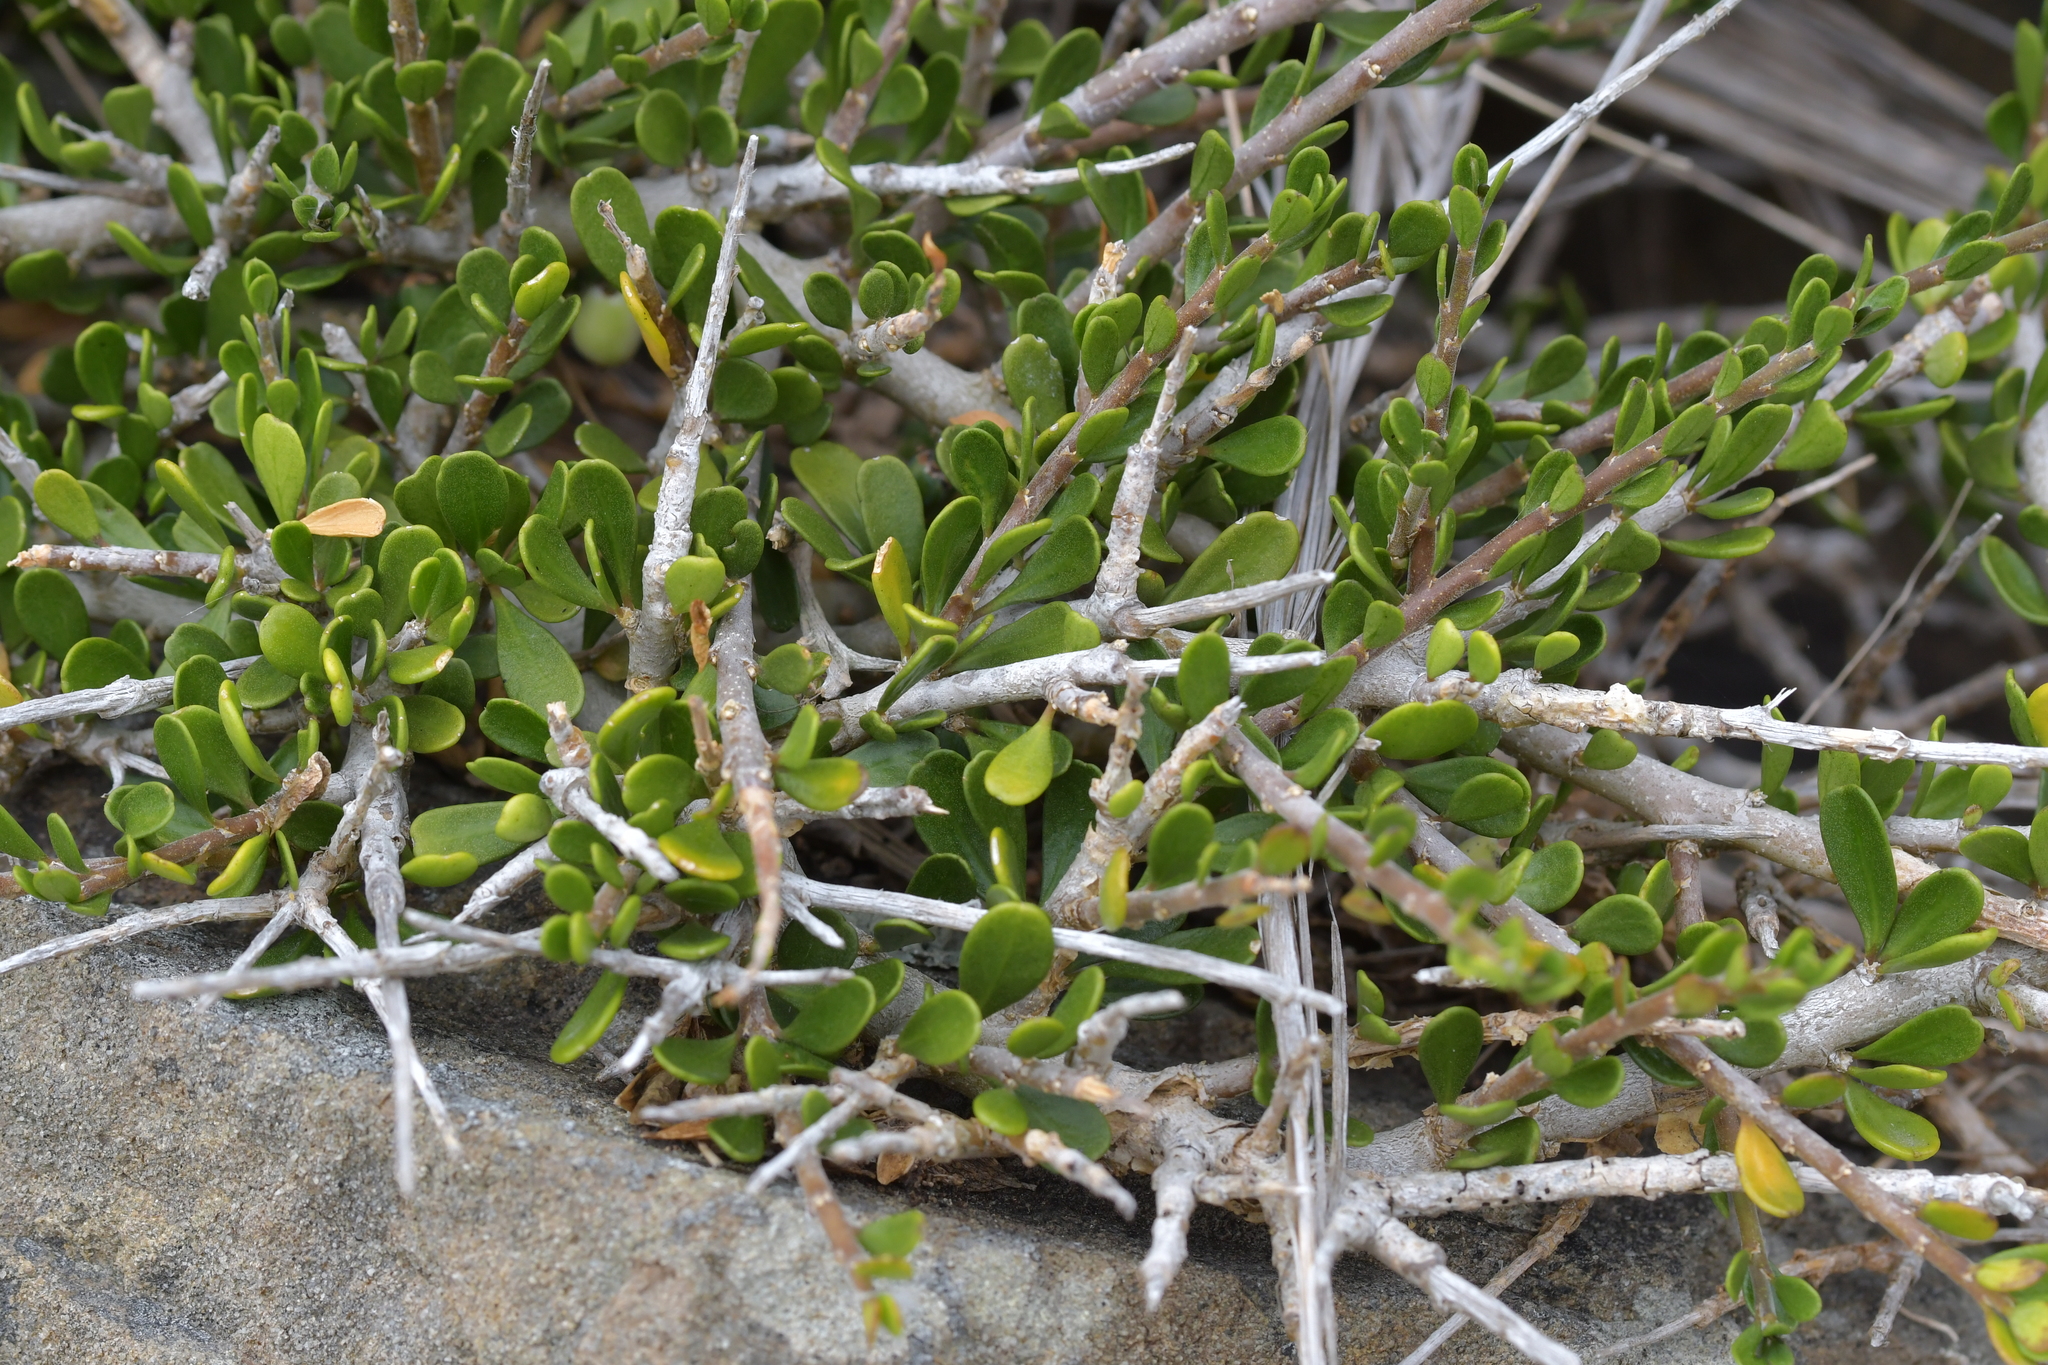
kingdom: Plantae
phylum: Tracheophyta
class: Magnoliopsida
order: Malpighiales
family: Violaceae
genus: Melicytus
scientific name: Melicytus crassifolius
